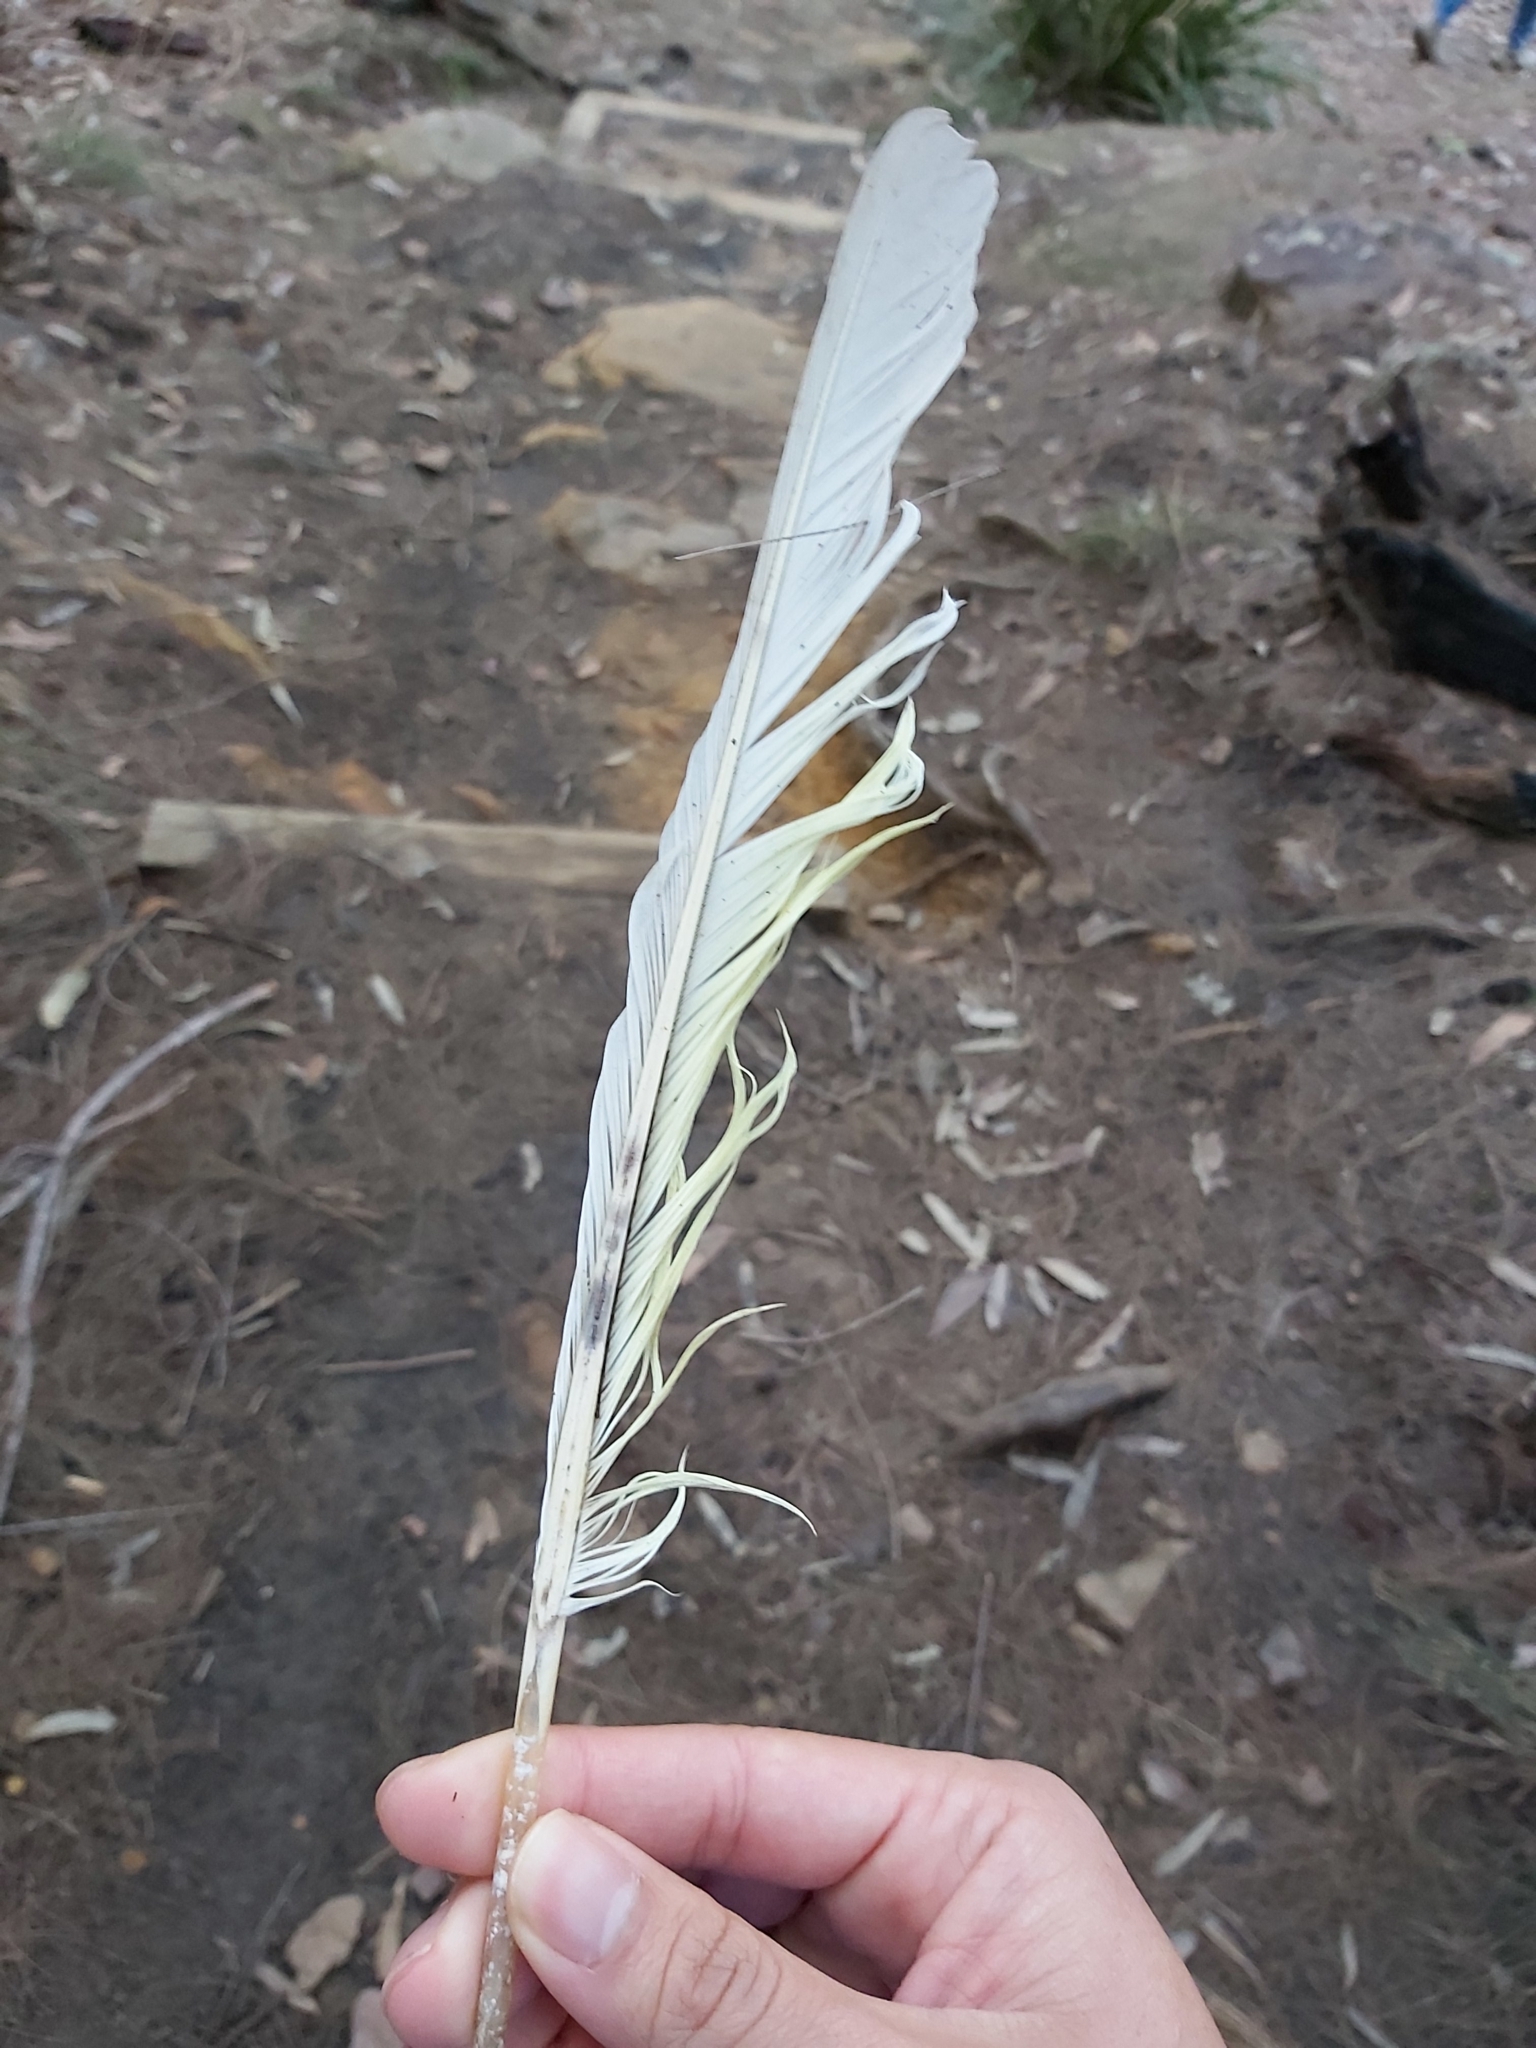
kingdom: Animalia
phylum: Chordata
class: Aves
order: Psittaciformes
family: Psittacidae
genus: Cacatua
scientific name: Cacatua galerita
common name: Sulphur-crested cockatoo
